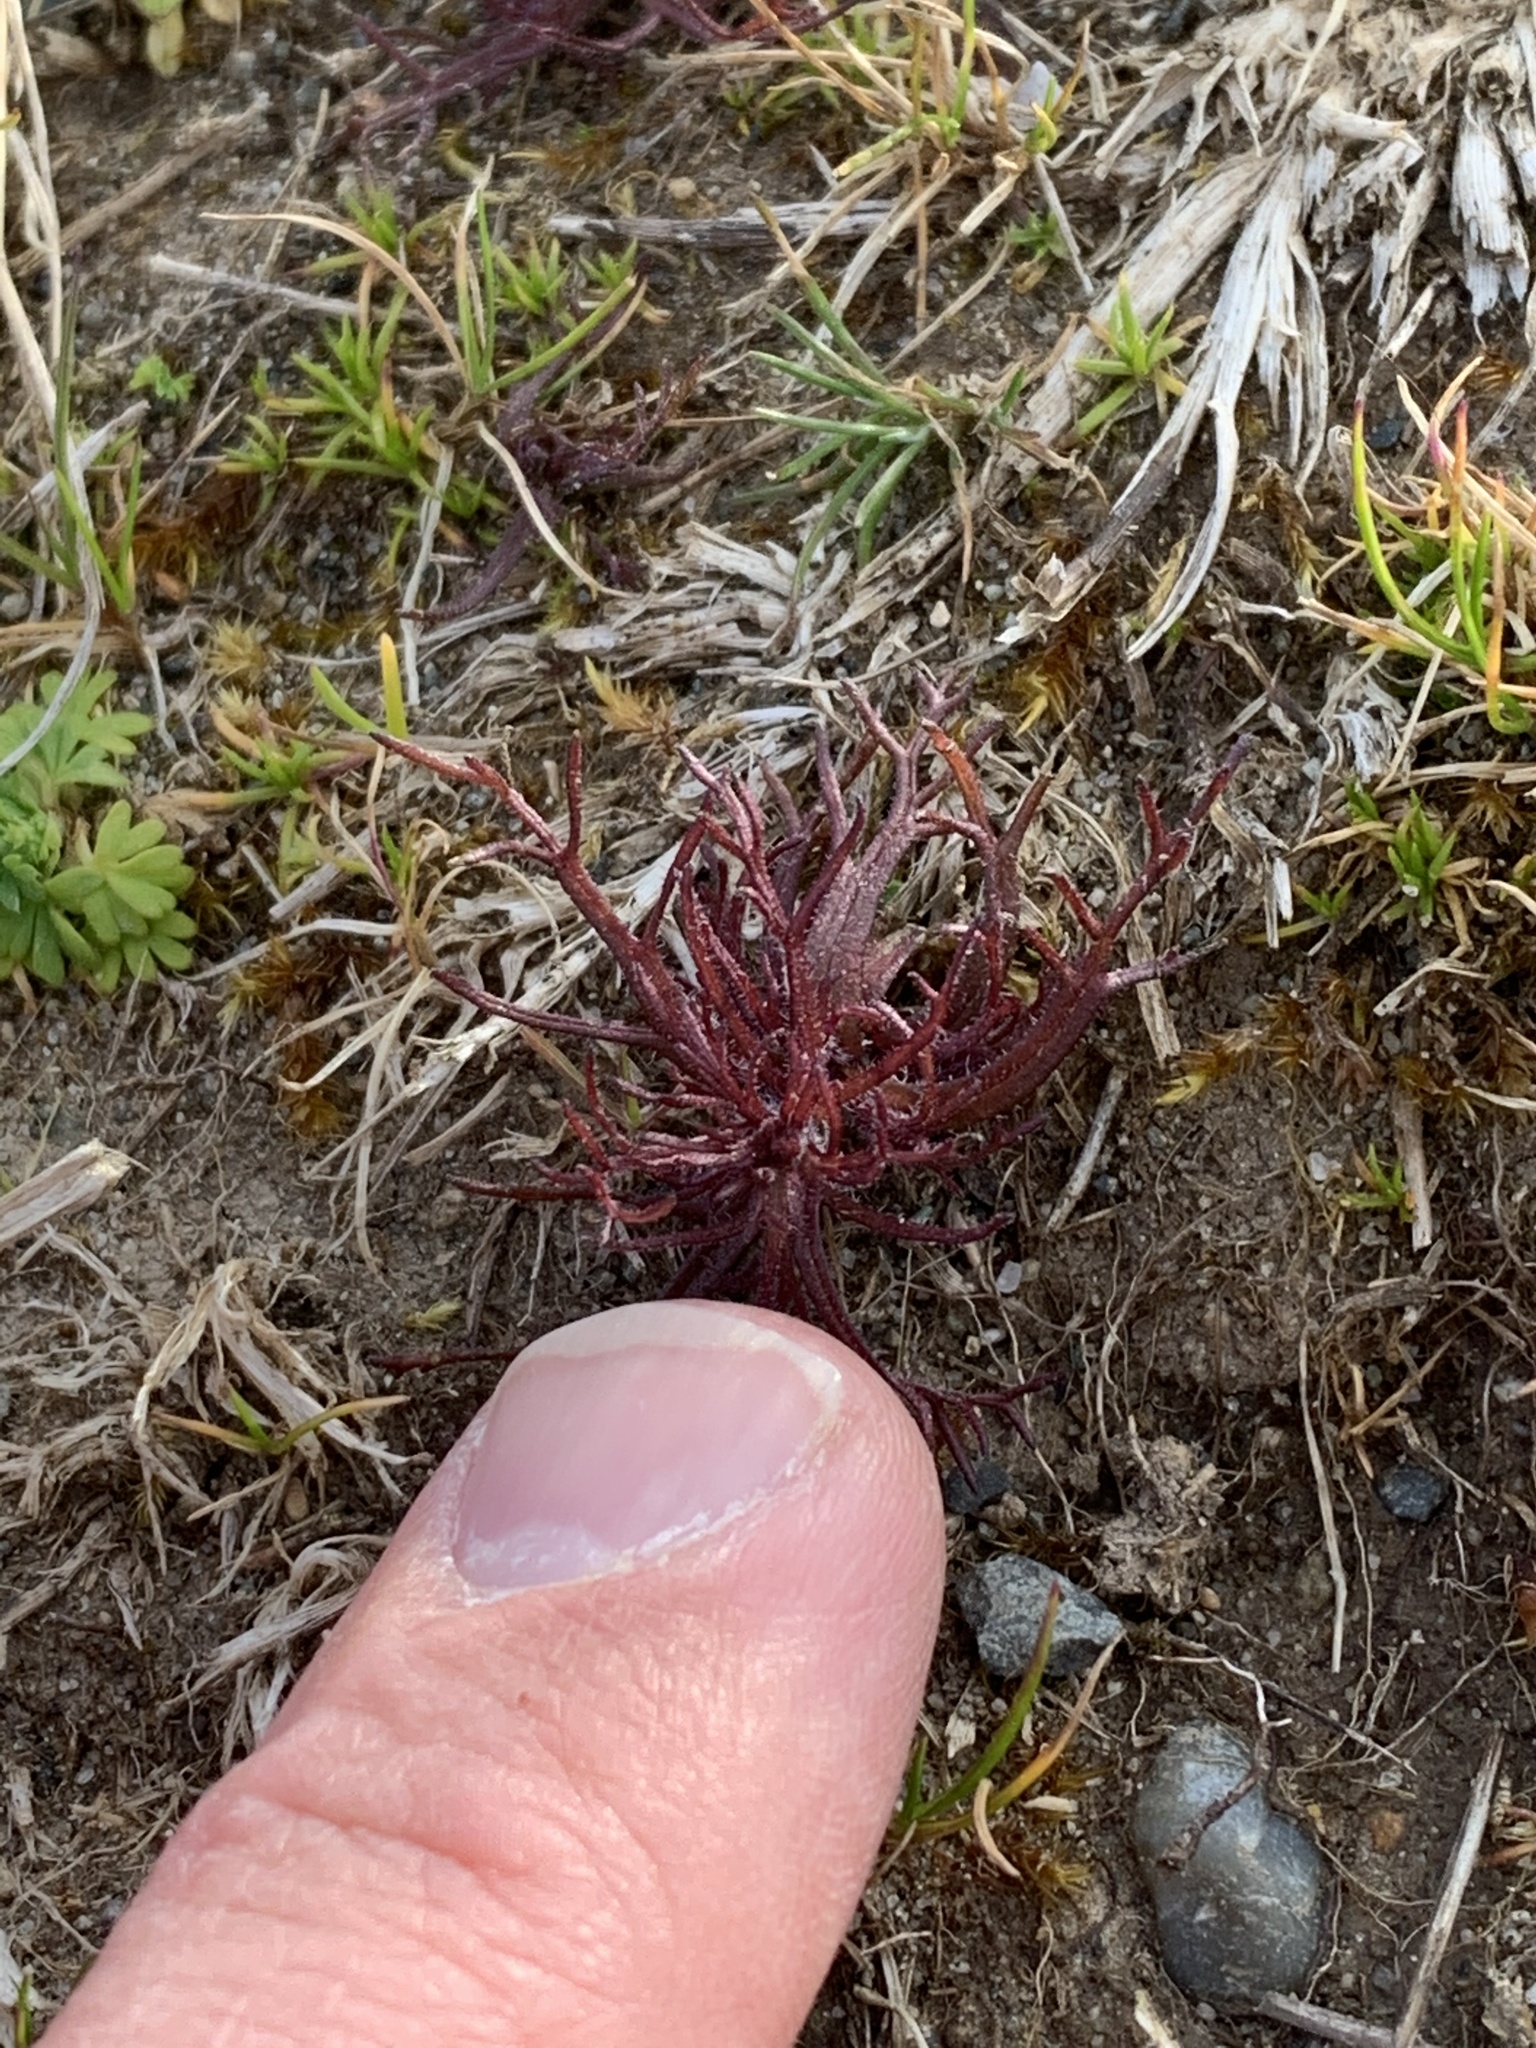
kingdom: Plantae
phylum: Tracheophyta
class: Magnoliopsida
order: Lamiales
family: Orobanchaceae
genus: Triphysaria
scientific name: Triphysaria pusilla
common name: Dwarf false owl-clover
